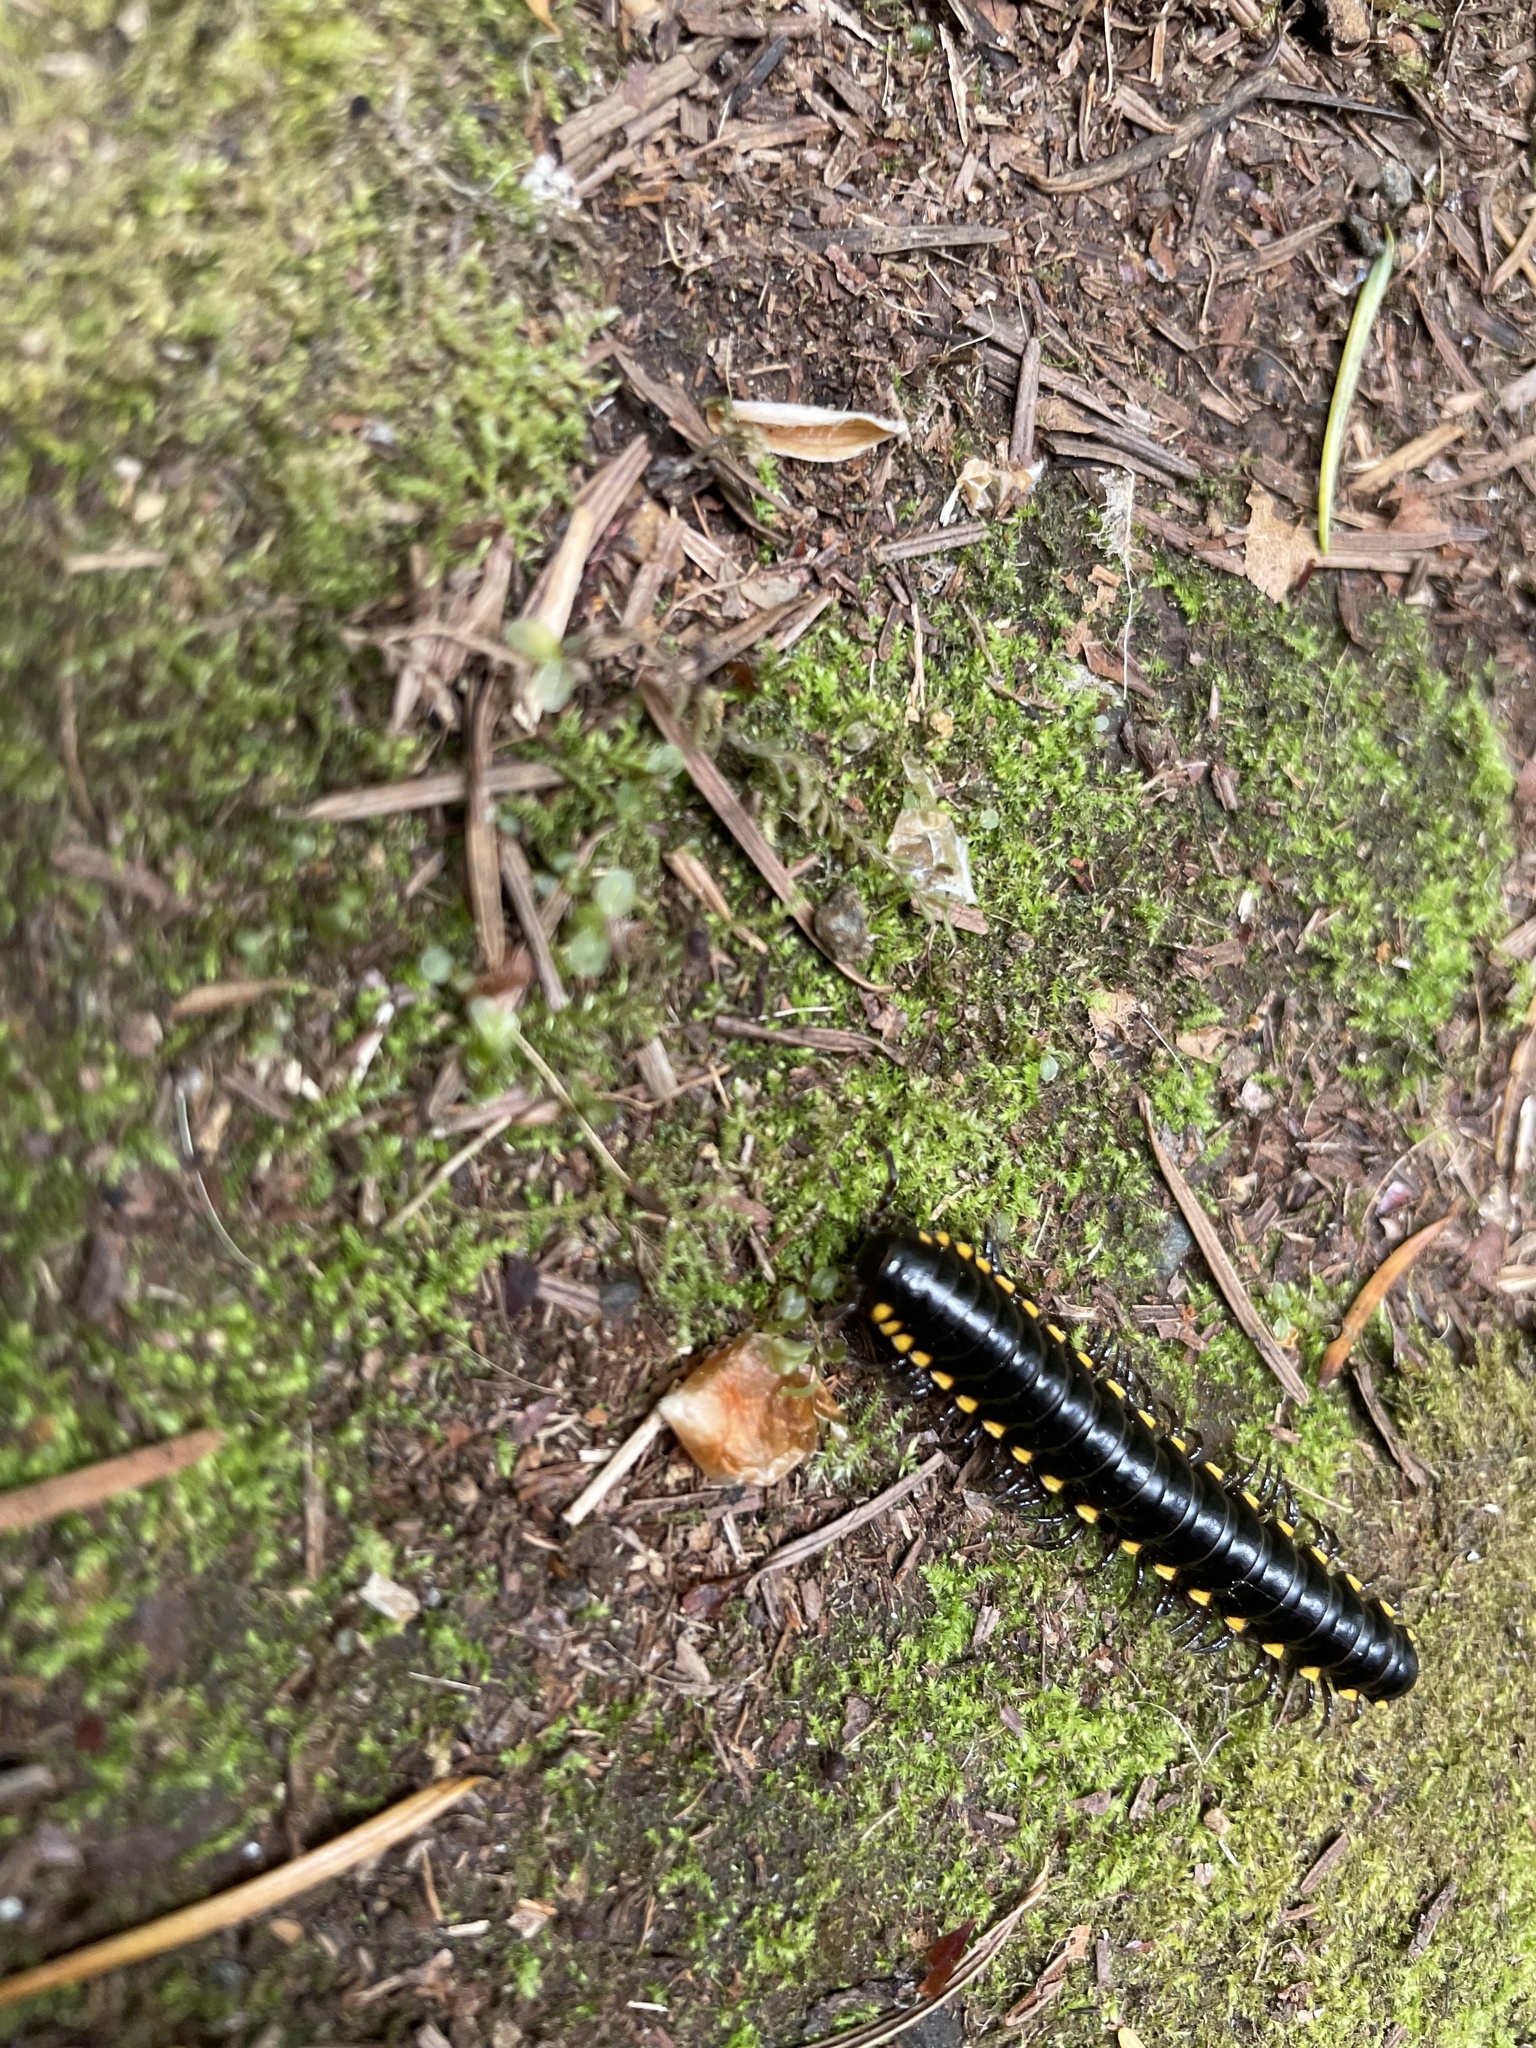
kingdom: Animalia
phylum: Arthropoda
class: Diplopoda
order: Polydesmida
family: Xystodesmidae
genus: Harpaphe
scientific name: Harpaphe haydeniana
